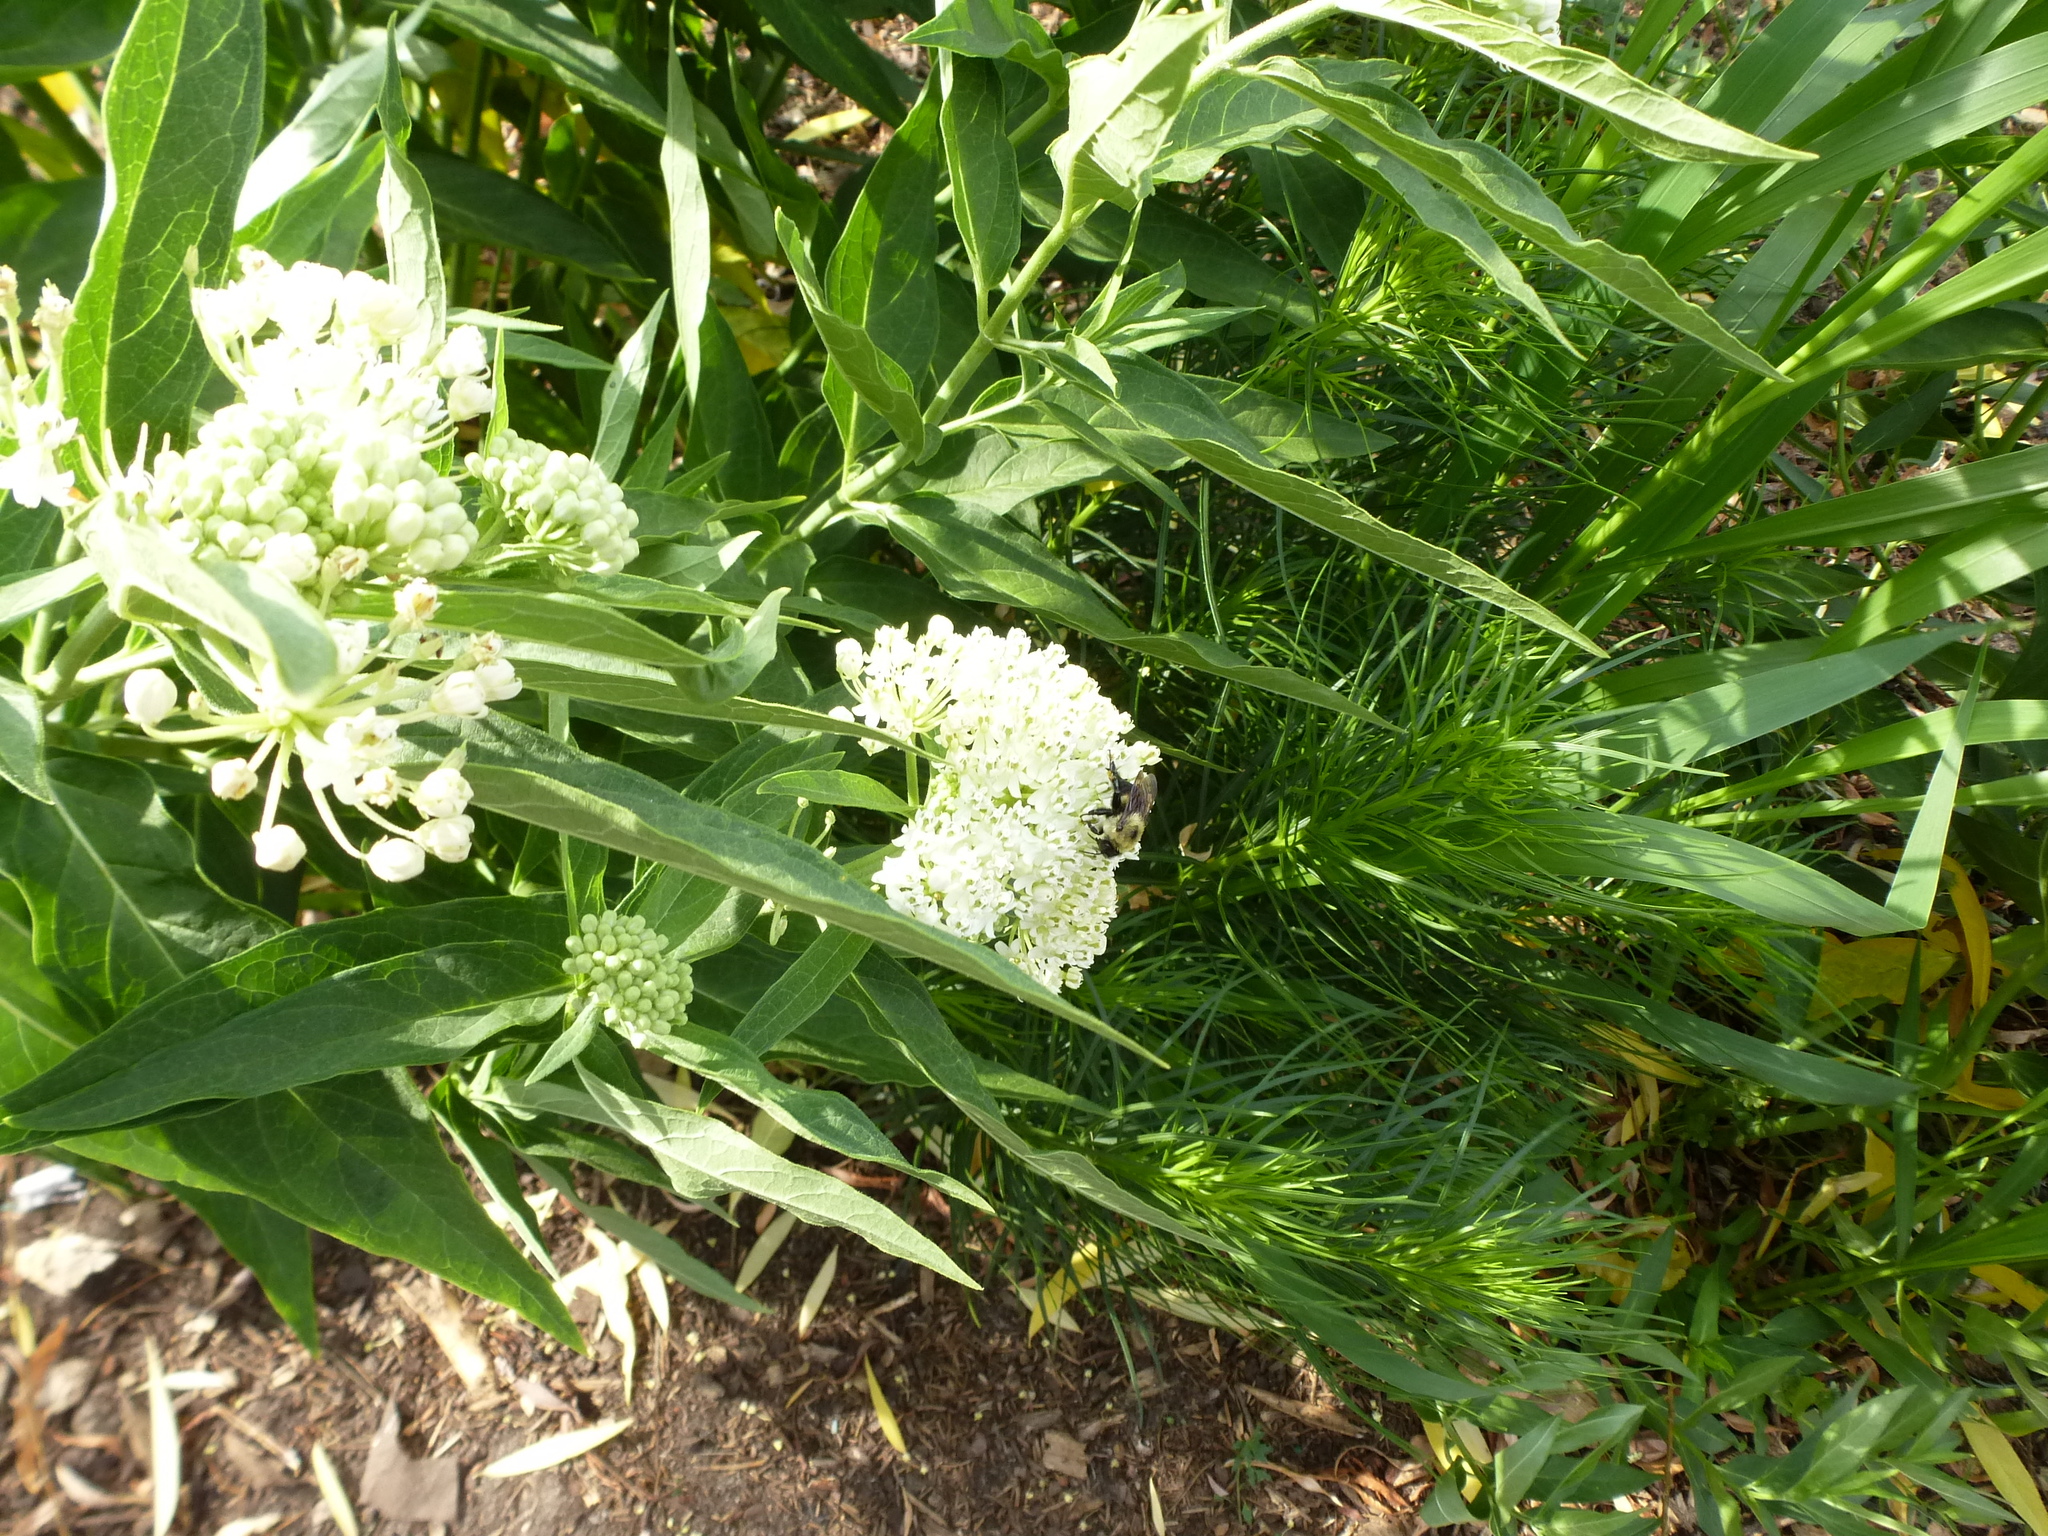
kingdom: Animalia
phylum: Arthropoda
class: Insecta
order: Hymenoptera
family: Apidae
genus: Bombus
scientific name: Bombus griseocollis
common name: Brown-belted bumble bee
